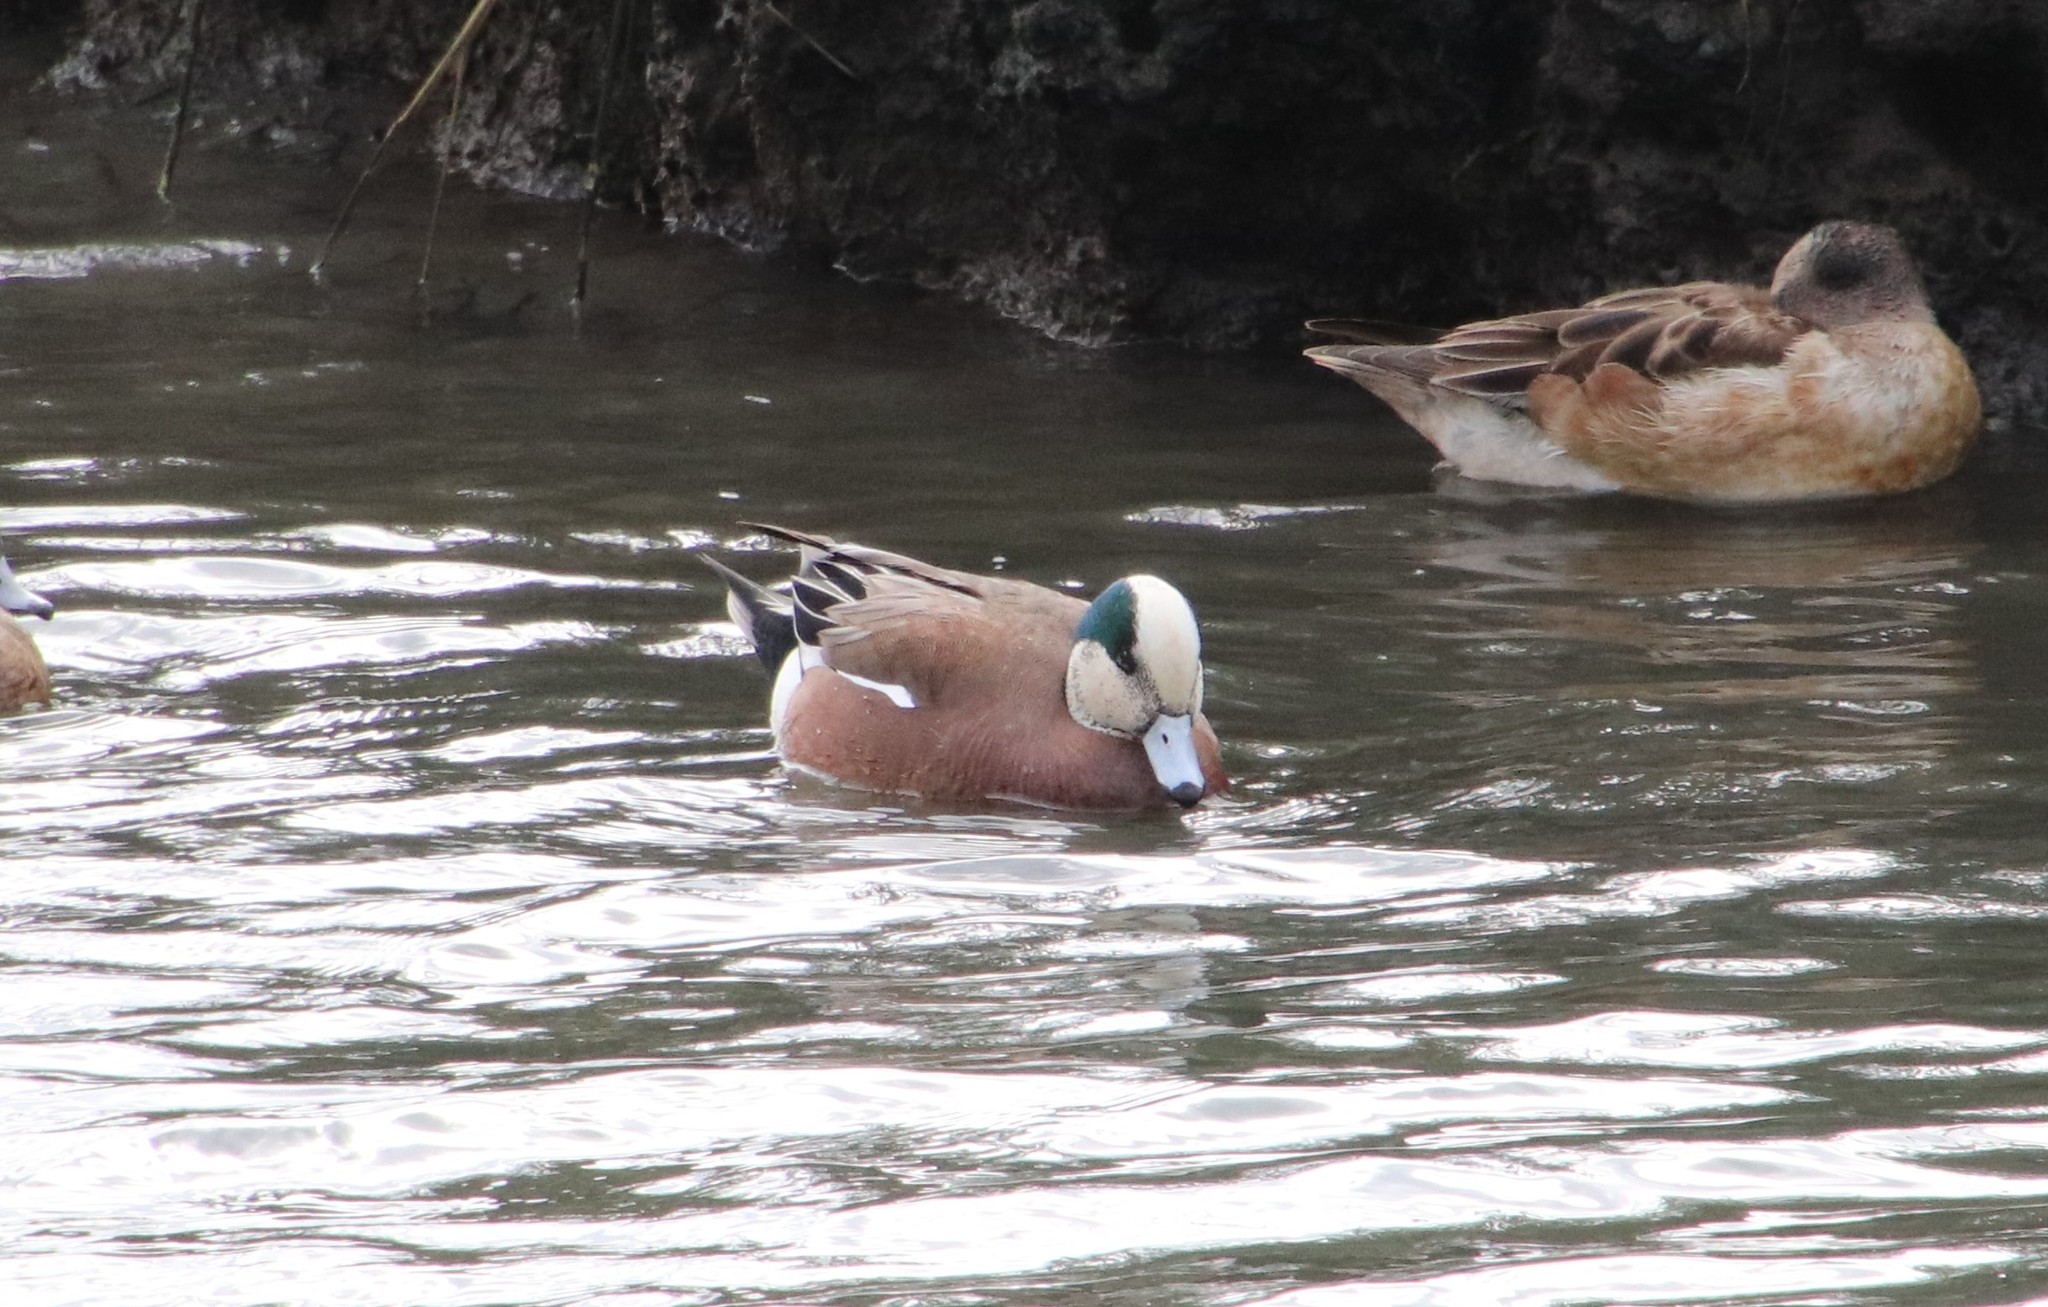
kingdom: Animalia
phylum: Chordata
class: Aves
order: Anseriformes
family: Anatidae
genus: Mareca
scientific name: Mareca americana
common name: American wigeon
